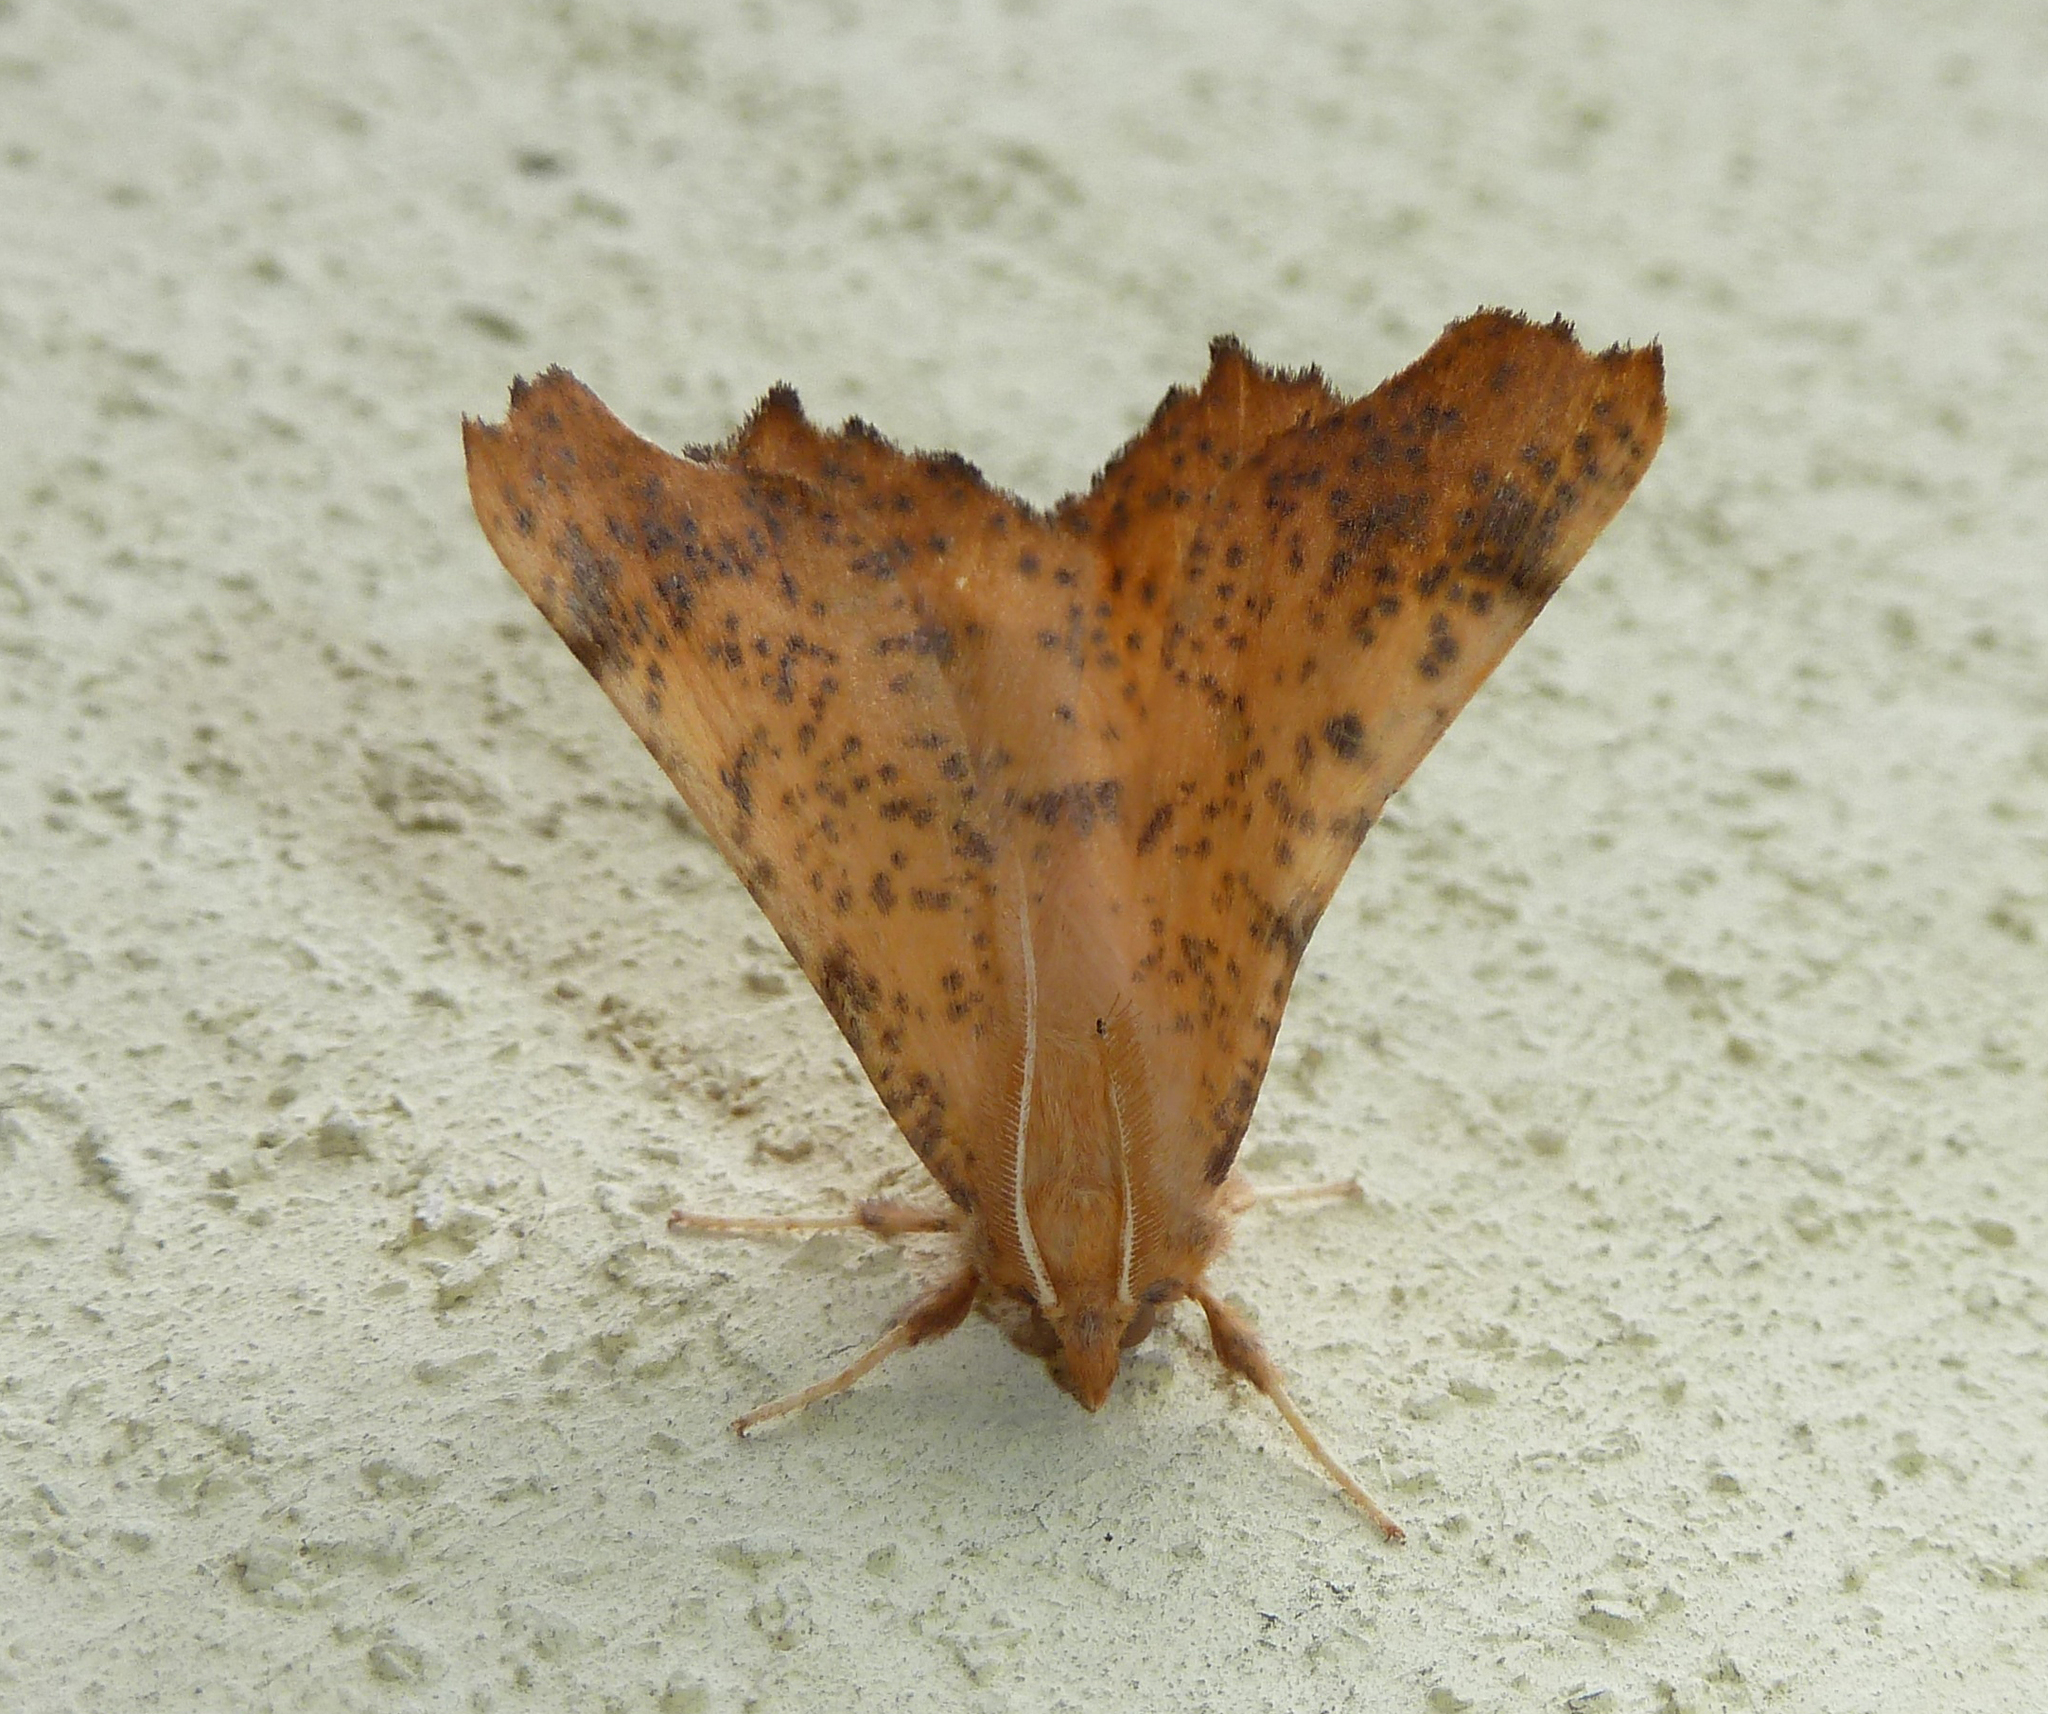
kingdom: Animalia
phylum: Arthropoda
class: Insecta
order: Lepidoptera
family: Geometridae
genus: Ennomos
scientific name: Ennomos magnaria
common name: Maple spanworm
